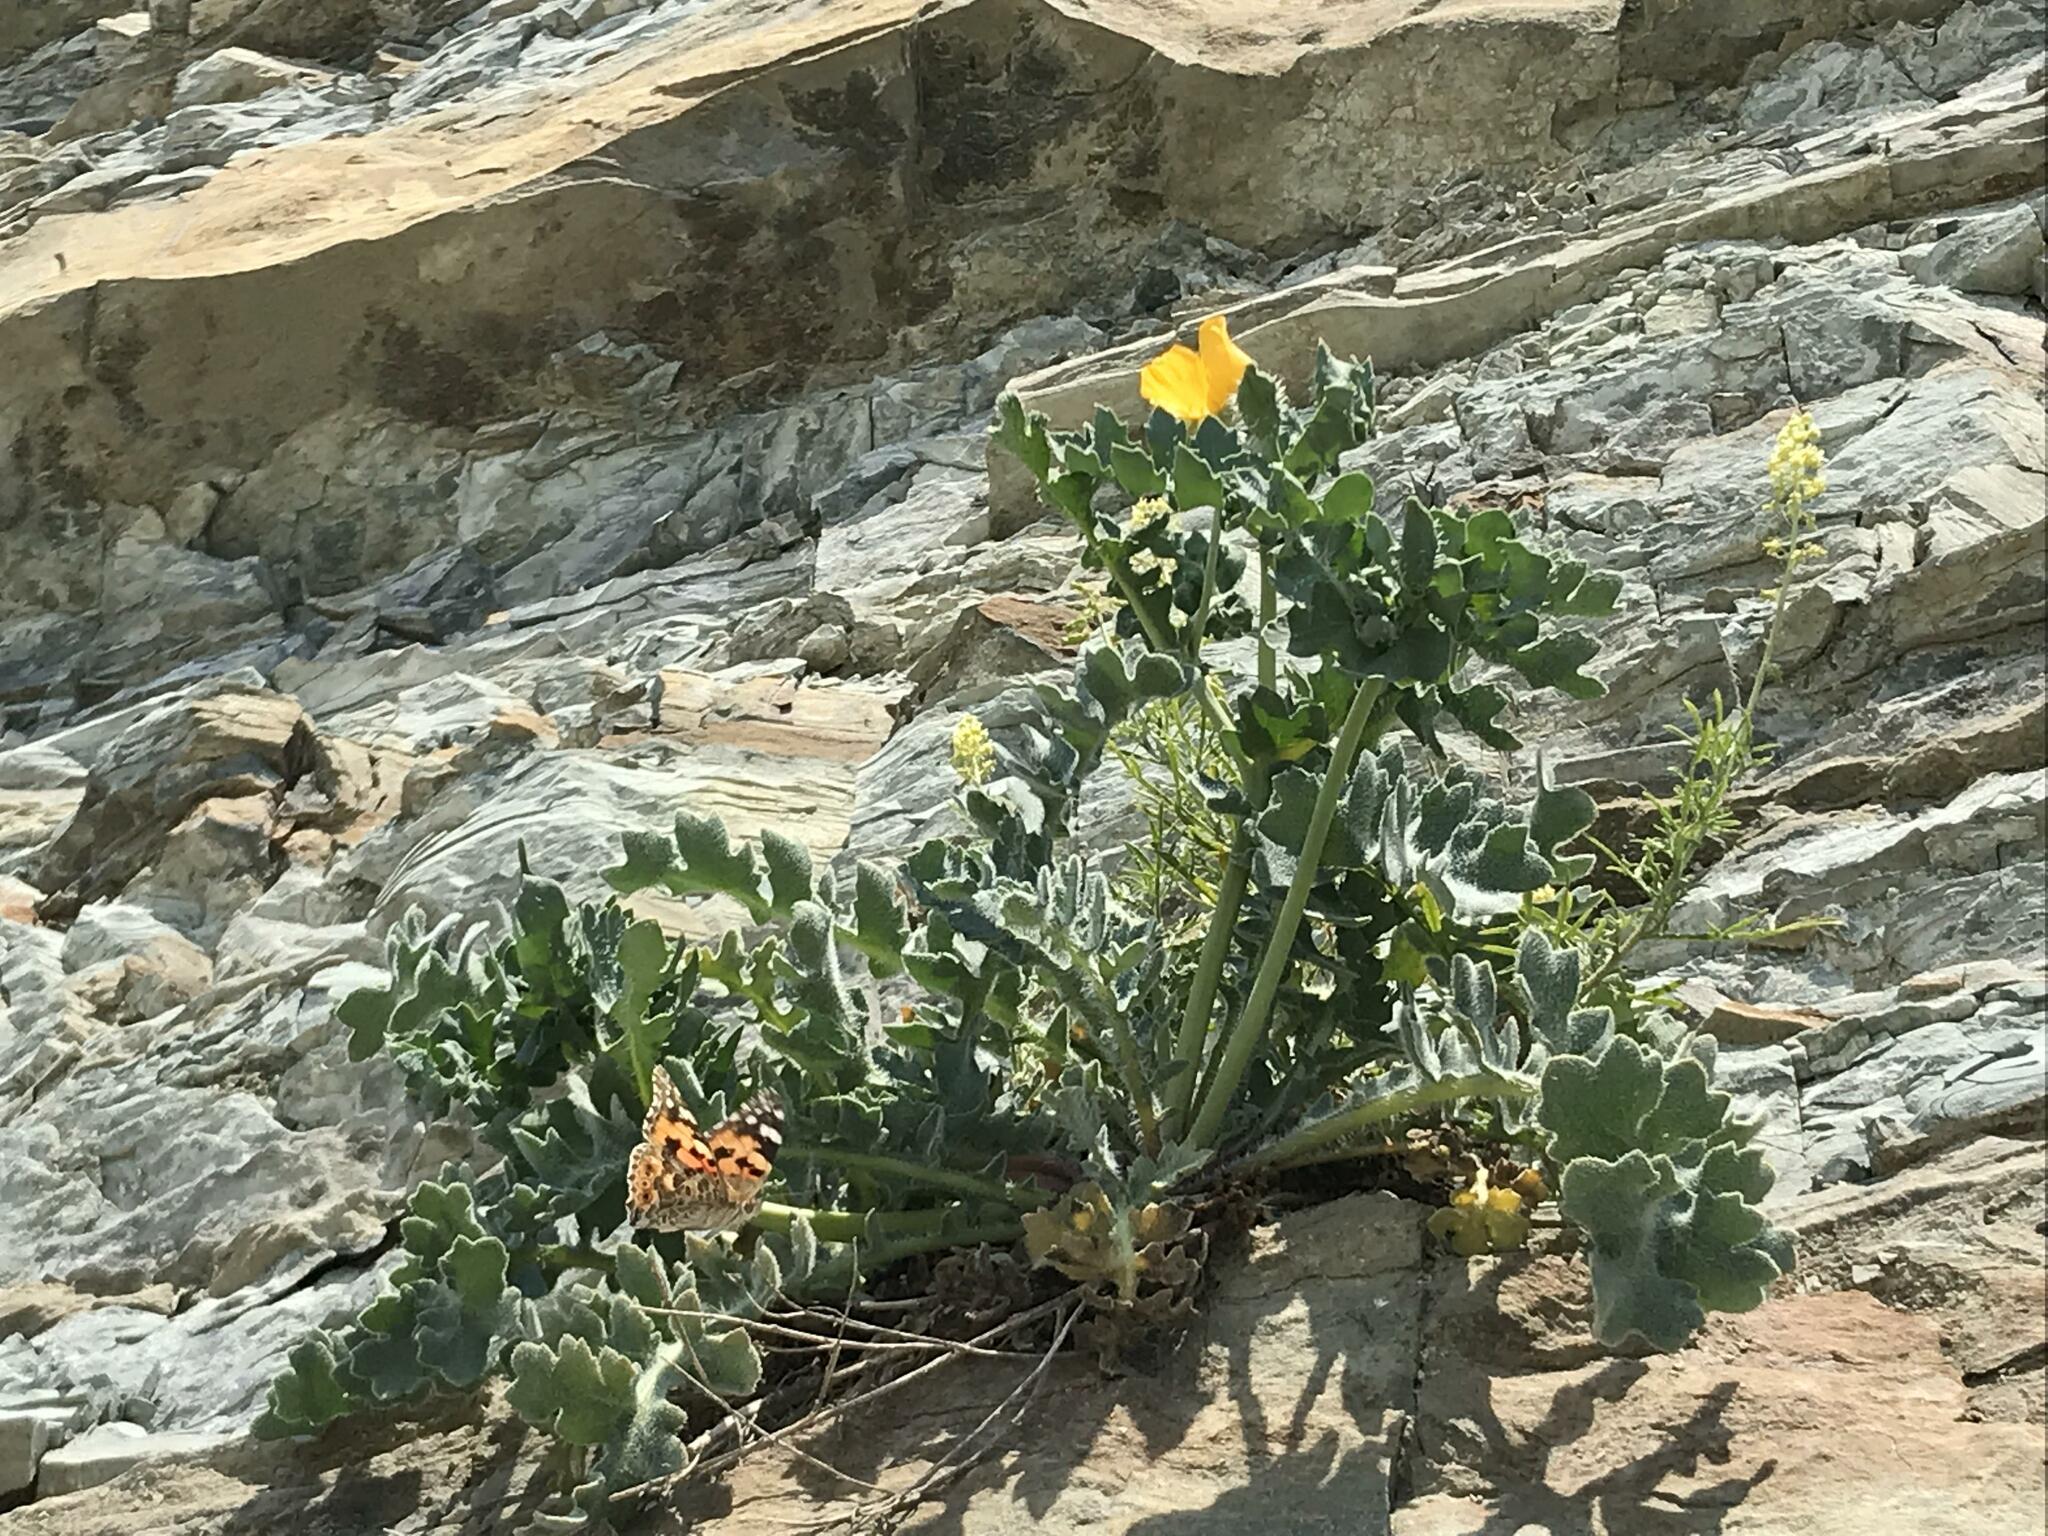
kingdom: Plantae
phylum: Tracheophyta
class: Magnoliopsida
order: Ranunculales
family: Papaveraceae
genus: Glaucium
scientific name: Glaucium flavum
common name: Yellow horned-poppy
